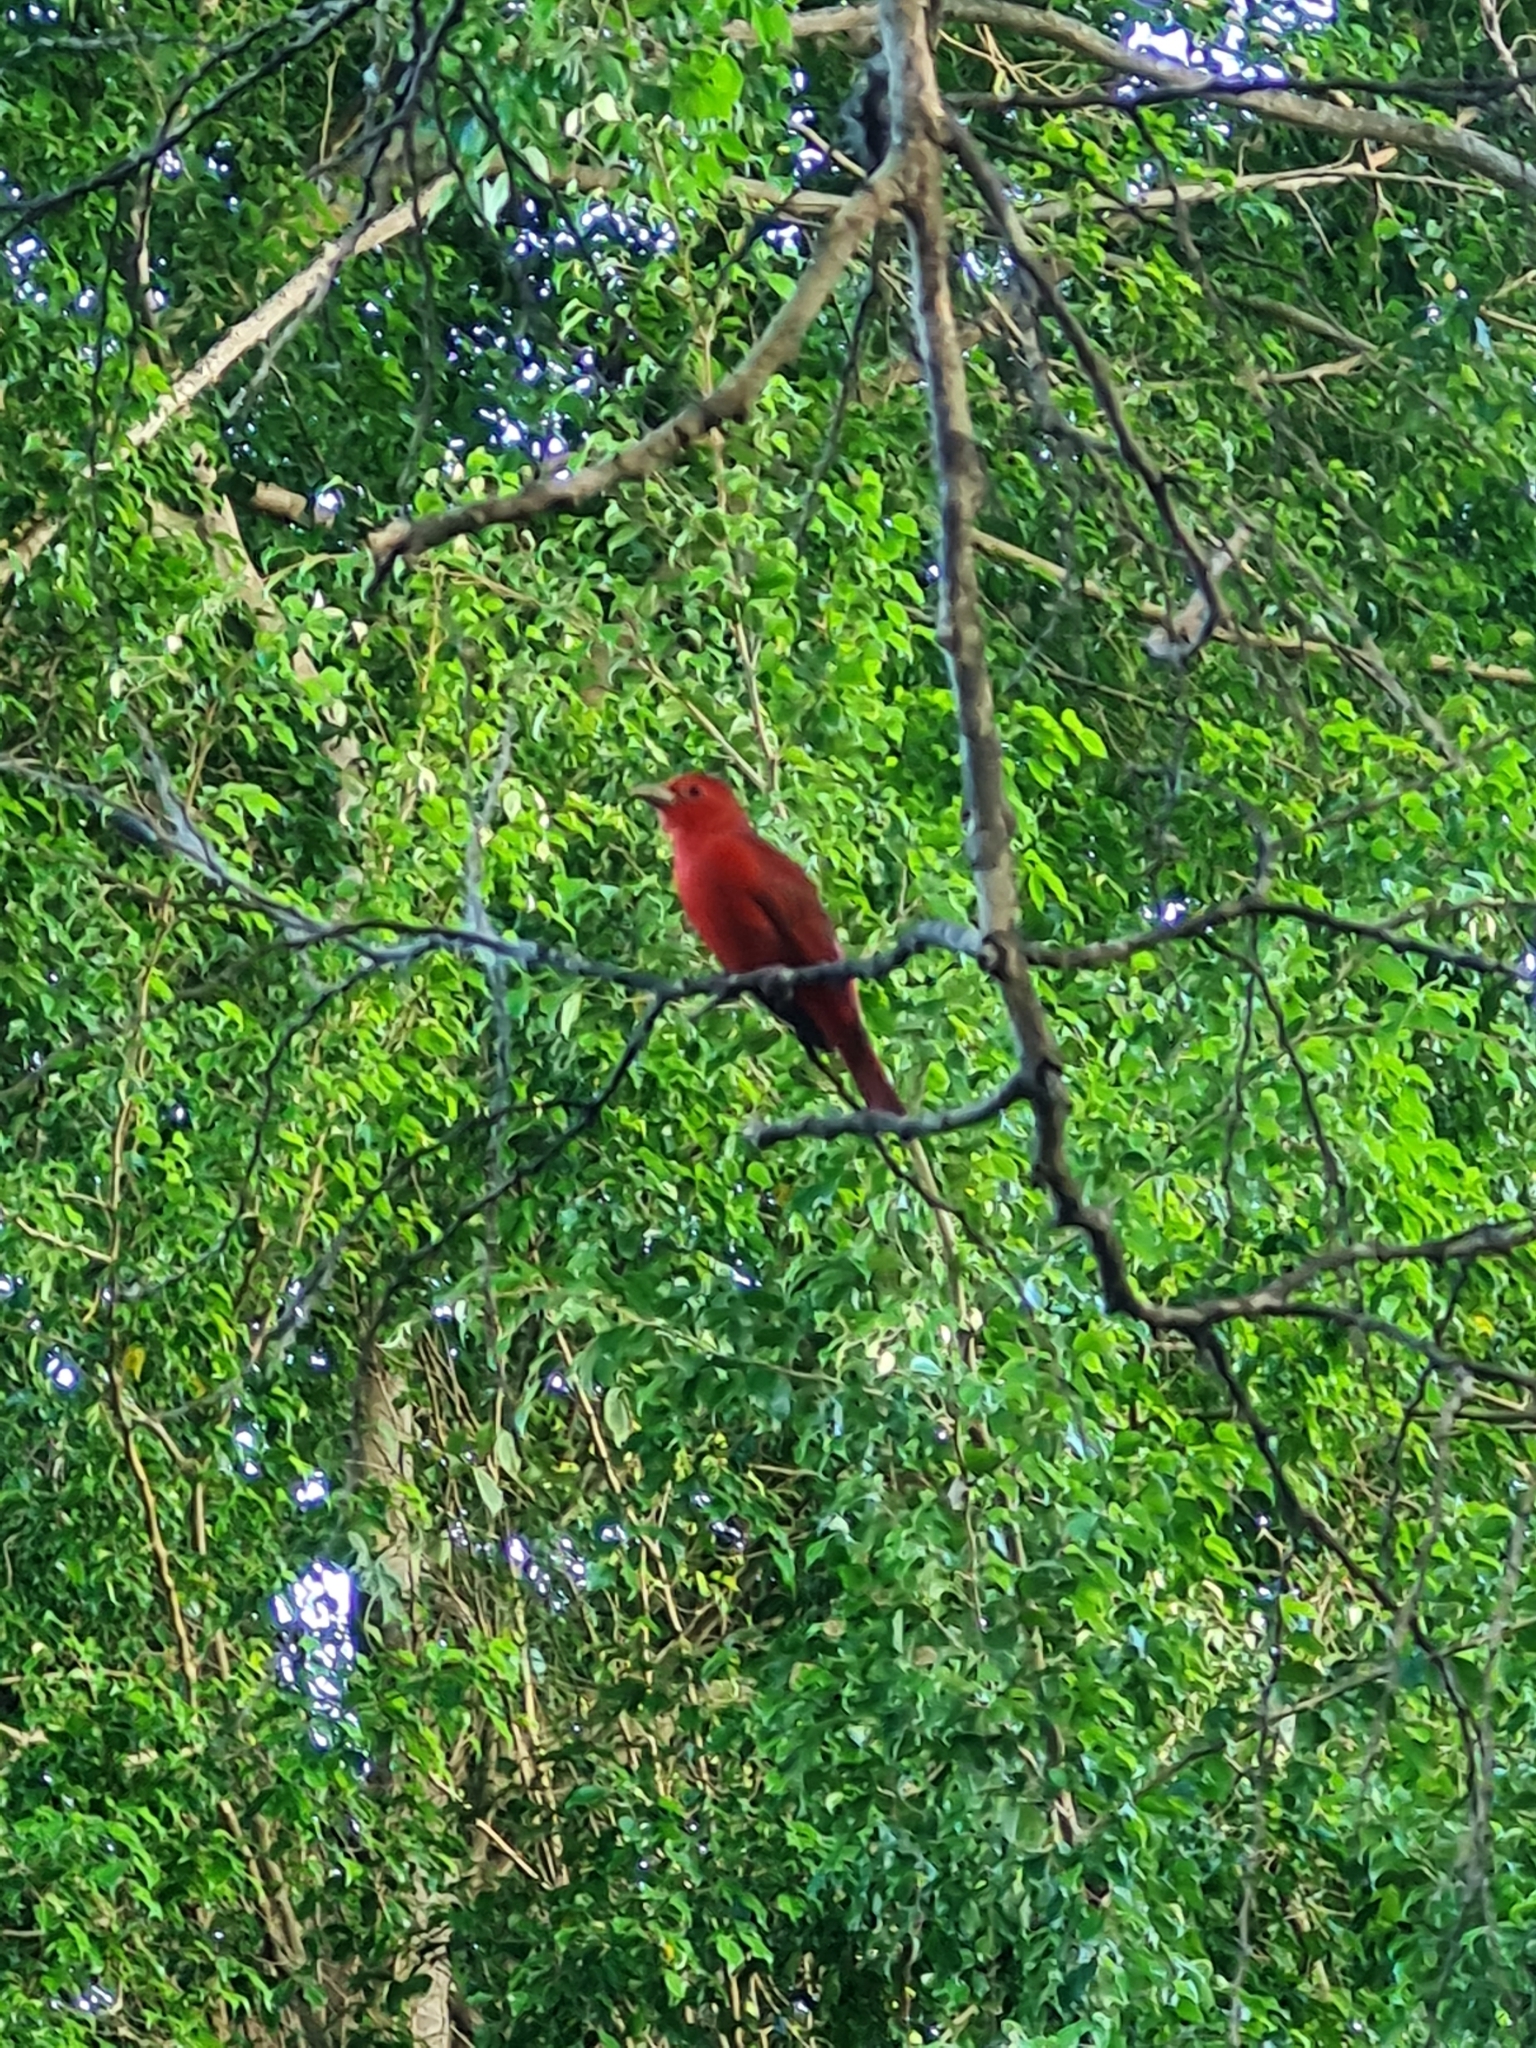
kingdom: Animalia
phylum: Chordata
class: Aves
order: Passeriformes
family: Cardinalidae
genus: Piranga
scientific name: Piranga rubra
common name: Summer tanager
